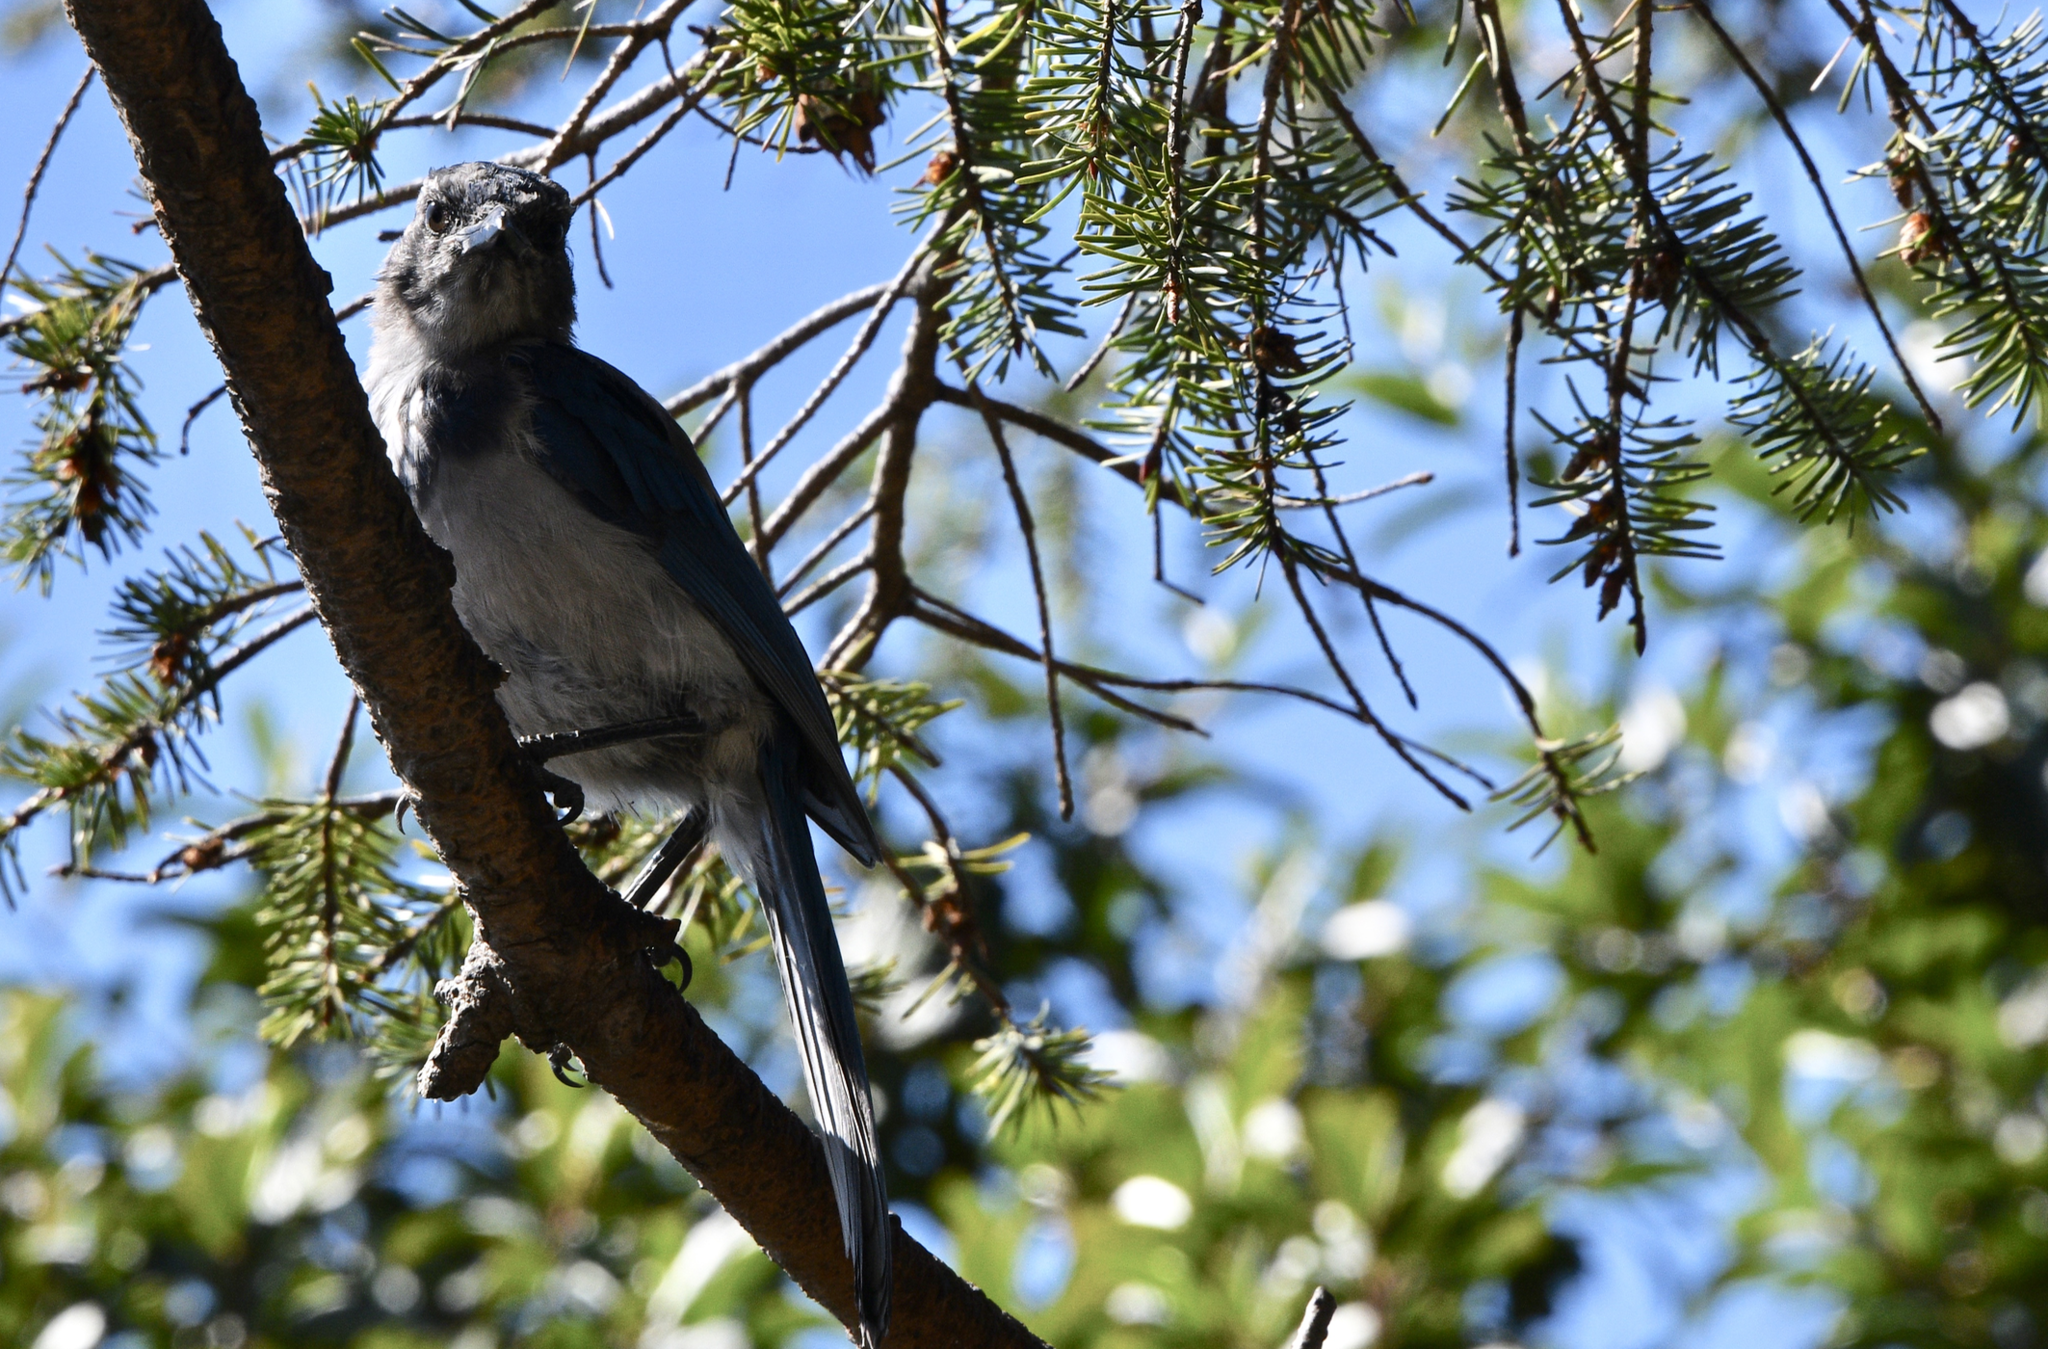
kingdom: Animalia
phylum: Chordata
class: Aves
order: Passeriformes
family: Corvidae
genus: Aphelocoma
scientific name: Aphelocoma californica
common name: California scrub-jay
